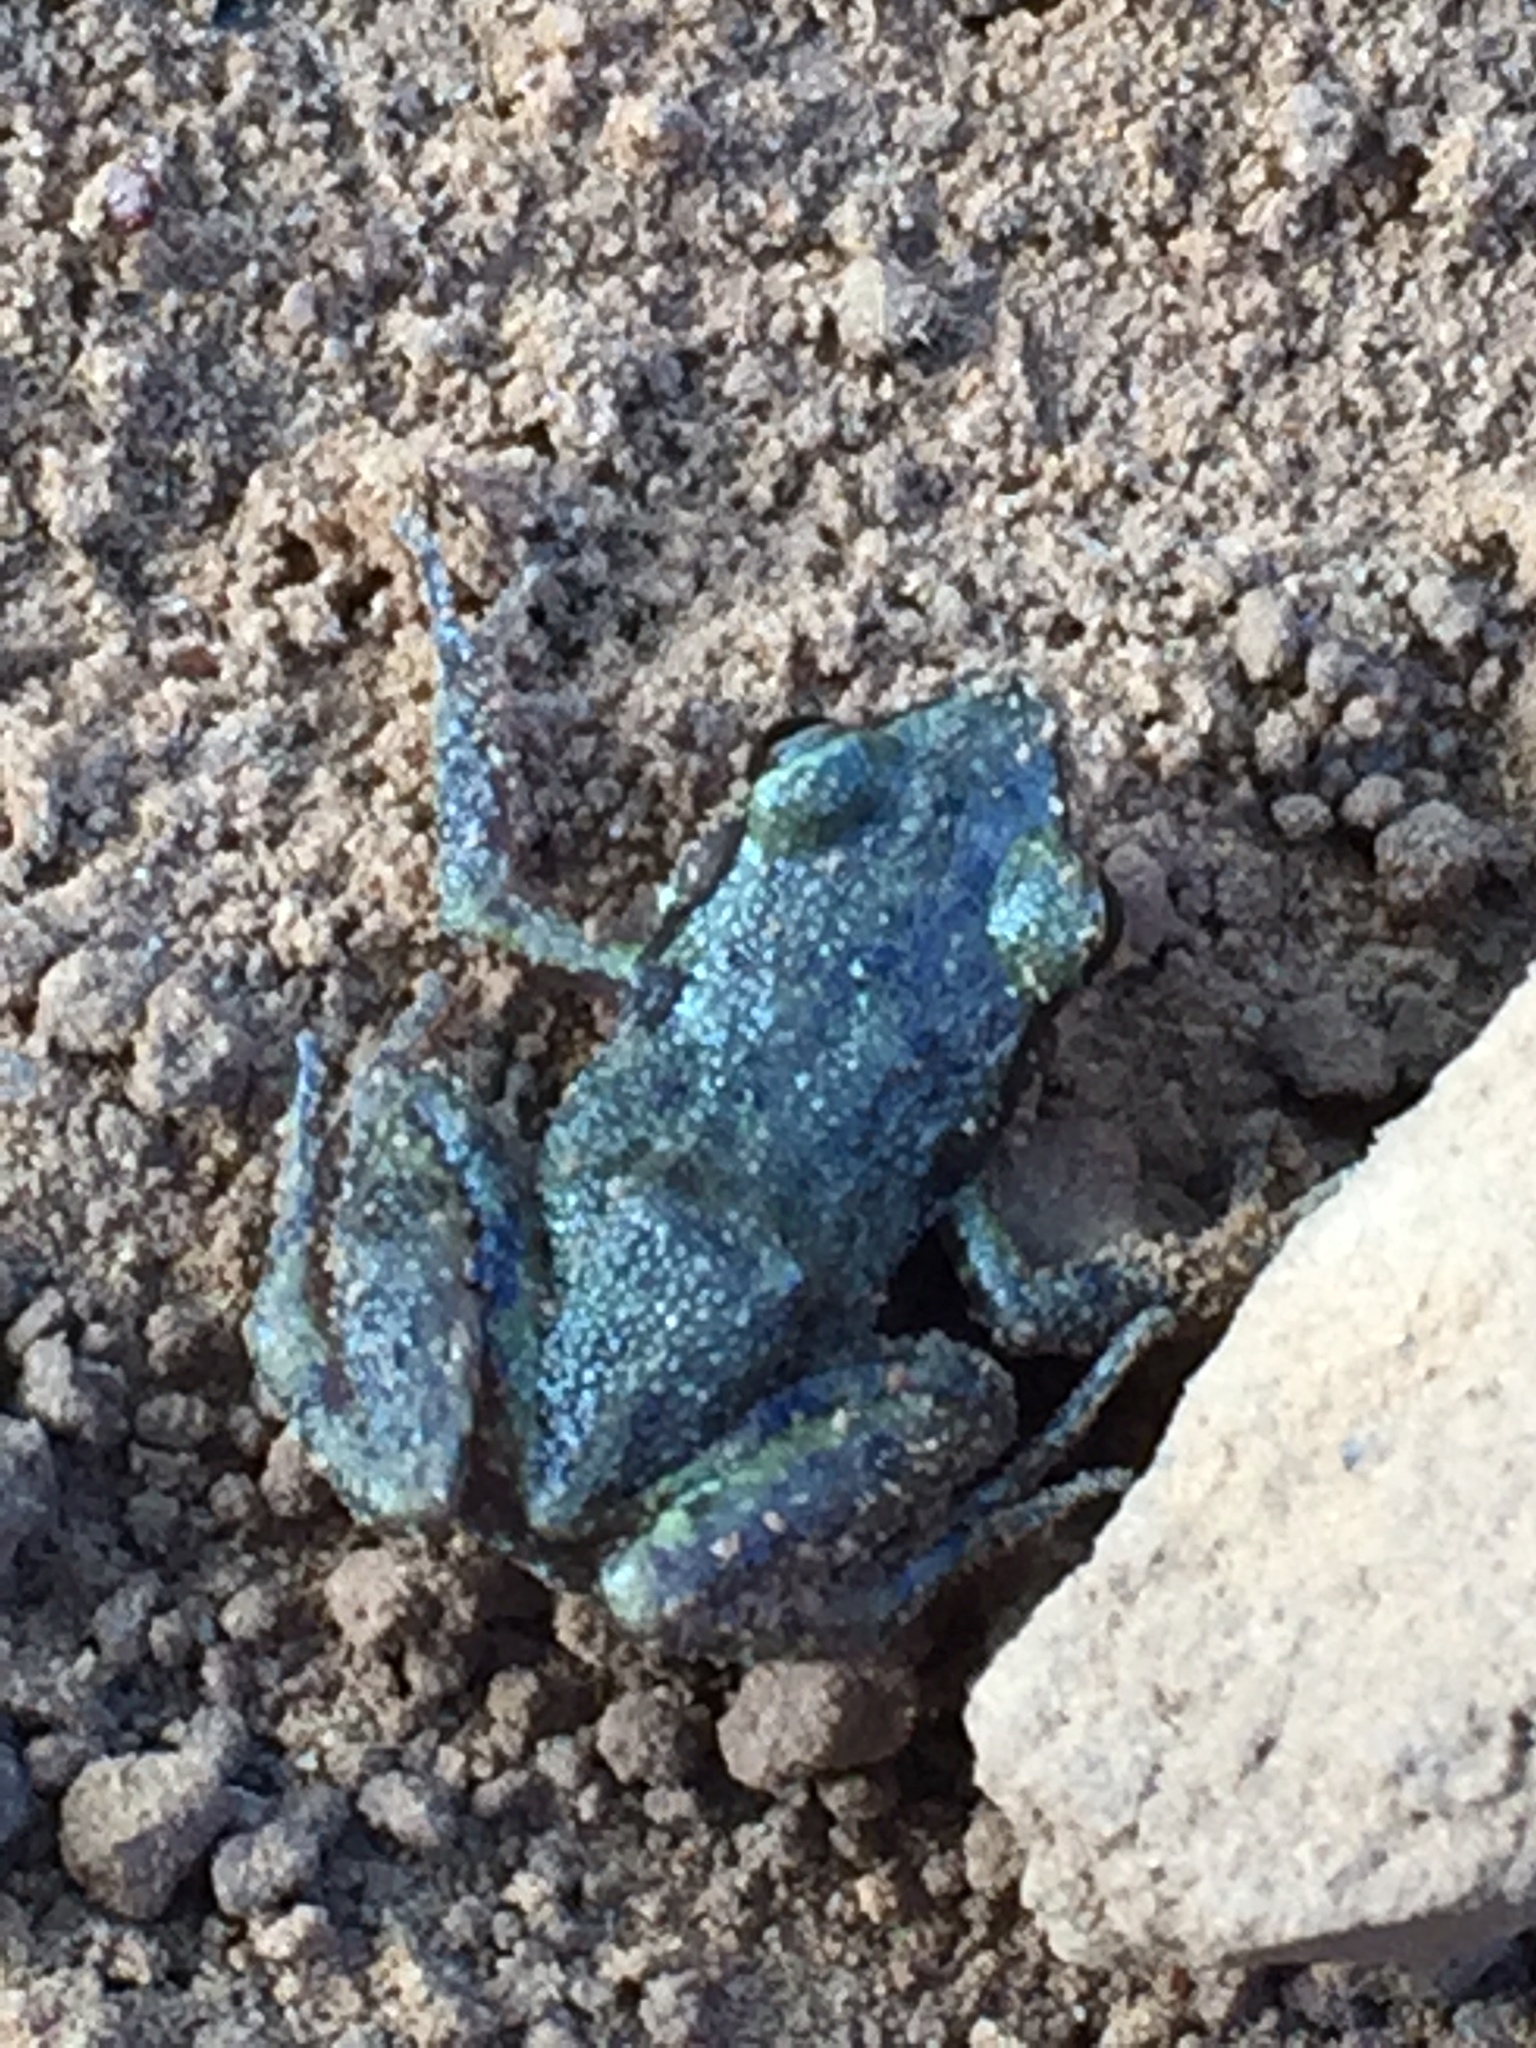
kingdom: Animalia
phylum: Chordata
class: Amphibia
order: Anura
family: Eleutherodactylidae
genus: Eleutherodactylus
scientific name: Eleutherodactylus campi
